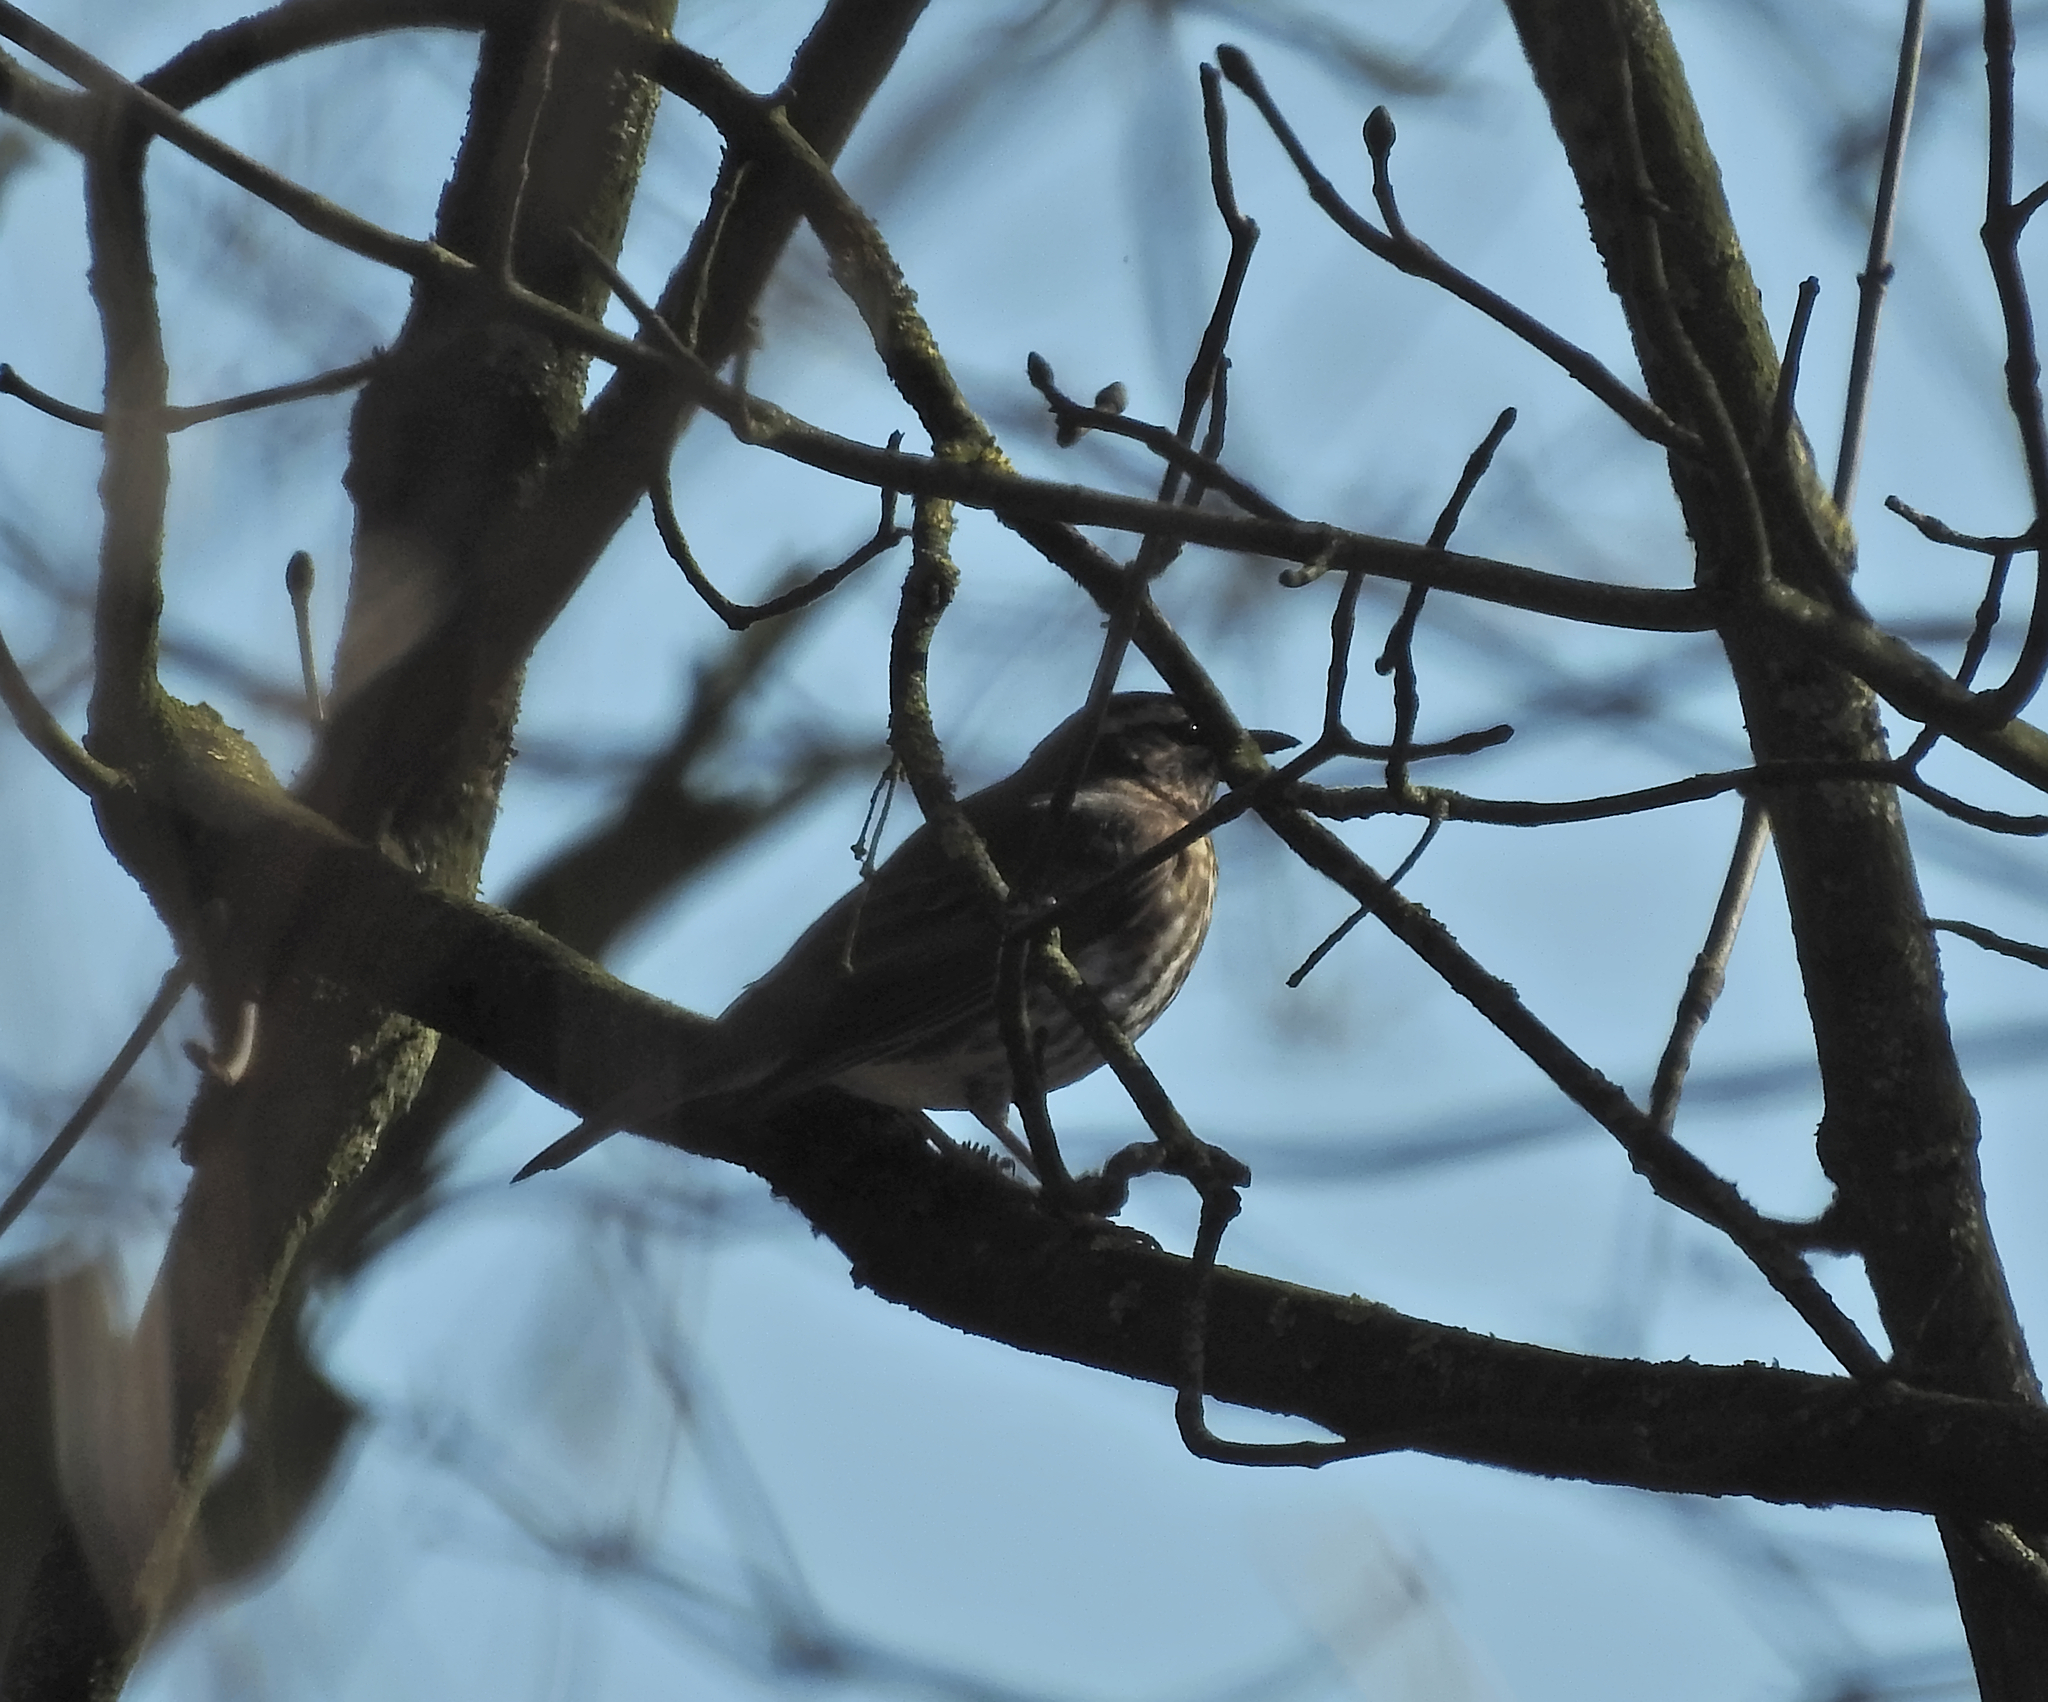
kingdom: Animalia
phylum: Chordata
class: Aves
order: Passeriformes
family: Turdidae
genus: Turdus
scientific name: Turdus iliacus
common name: Redwing
